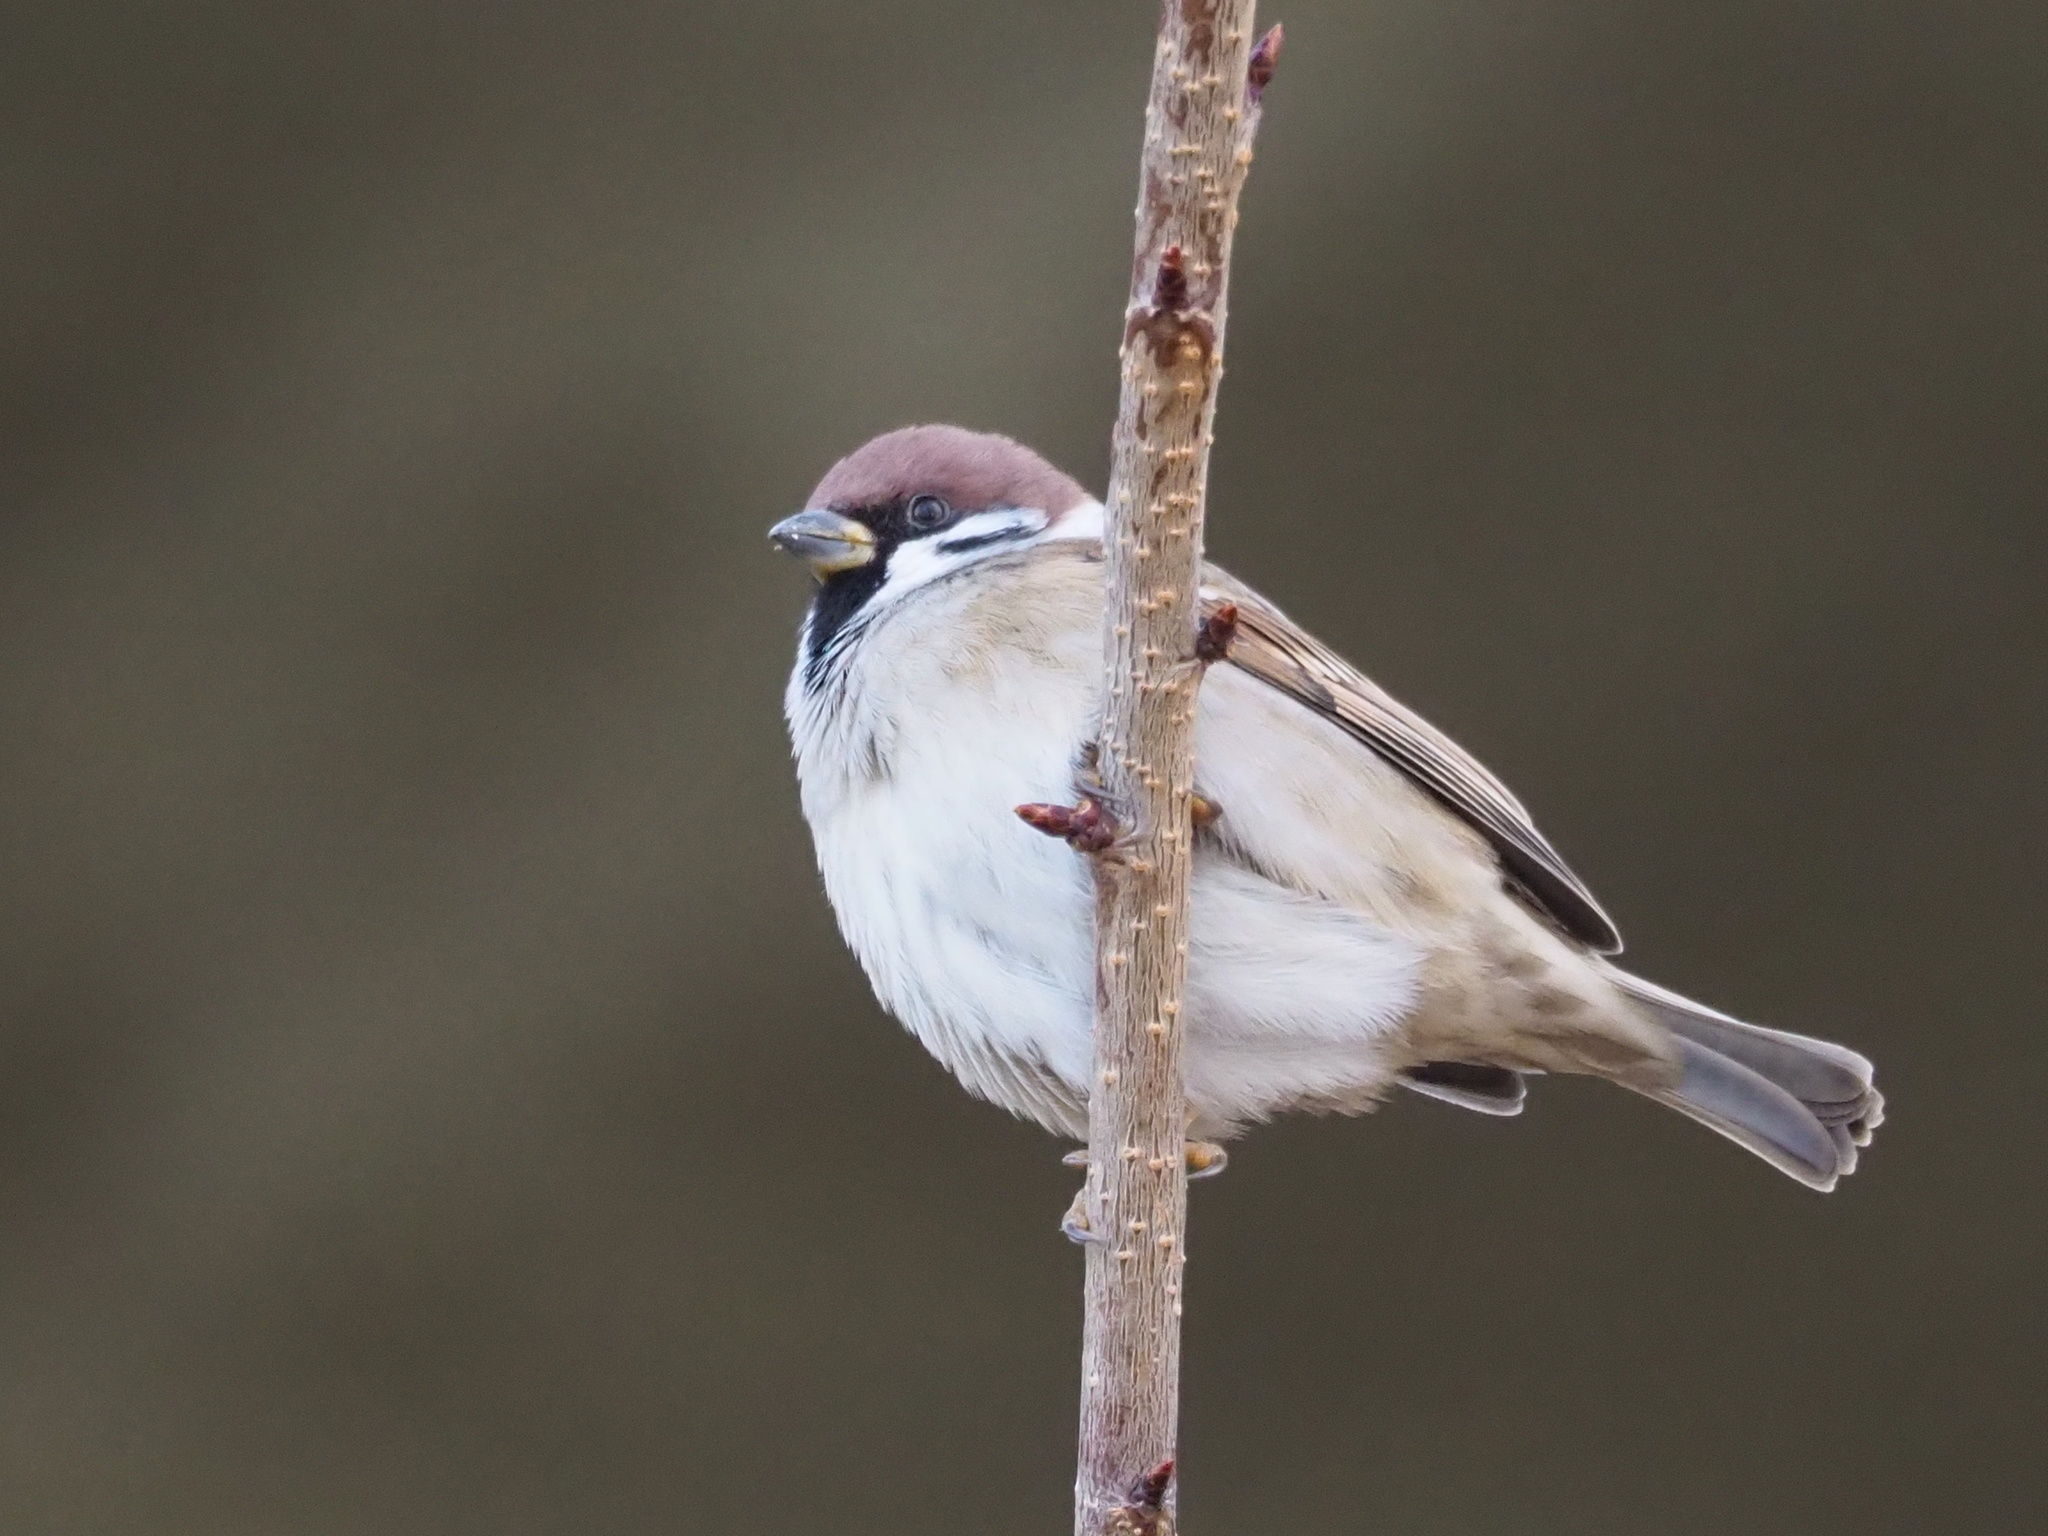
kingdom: Animalia
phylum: Chordata
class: Aves
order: Passeriformes
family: Passeridae
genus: Passer
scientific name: Passer montanus
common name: Eurasian tree sparrow
